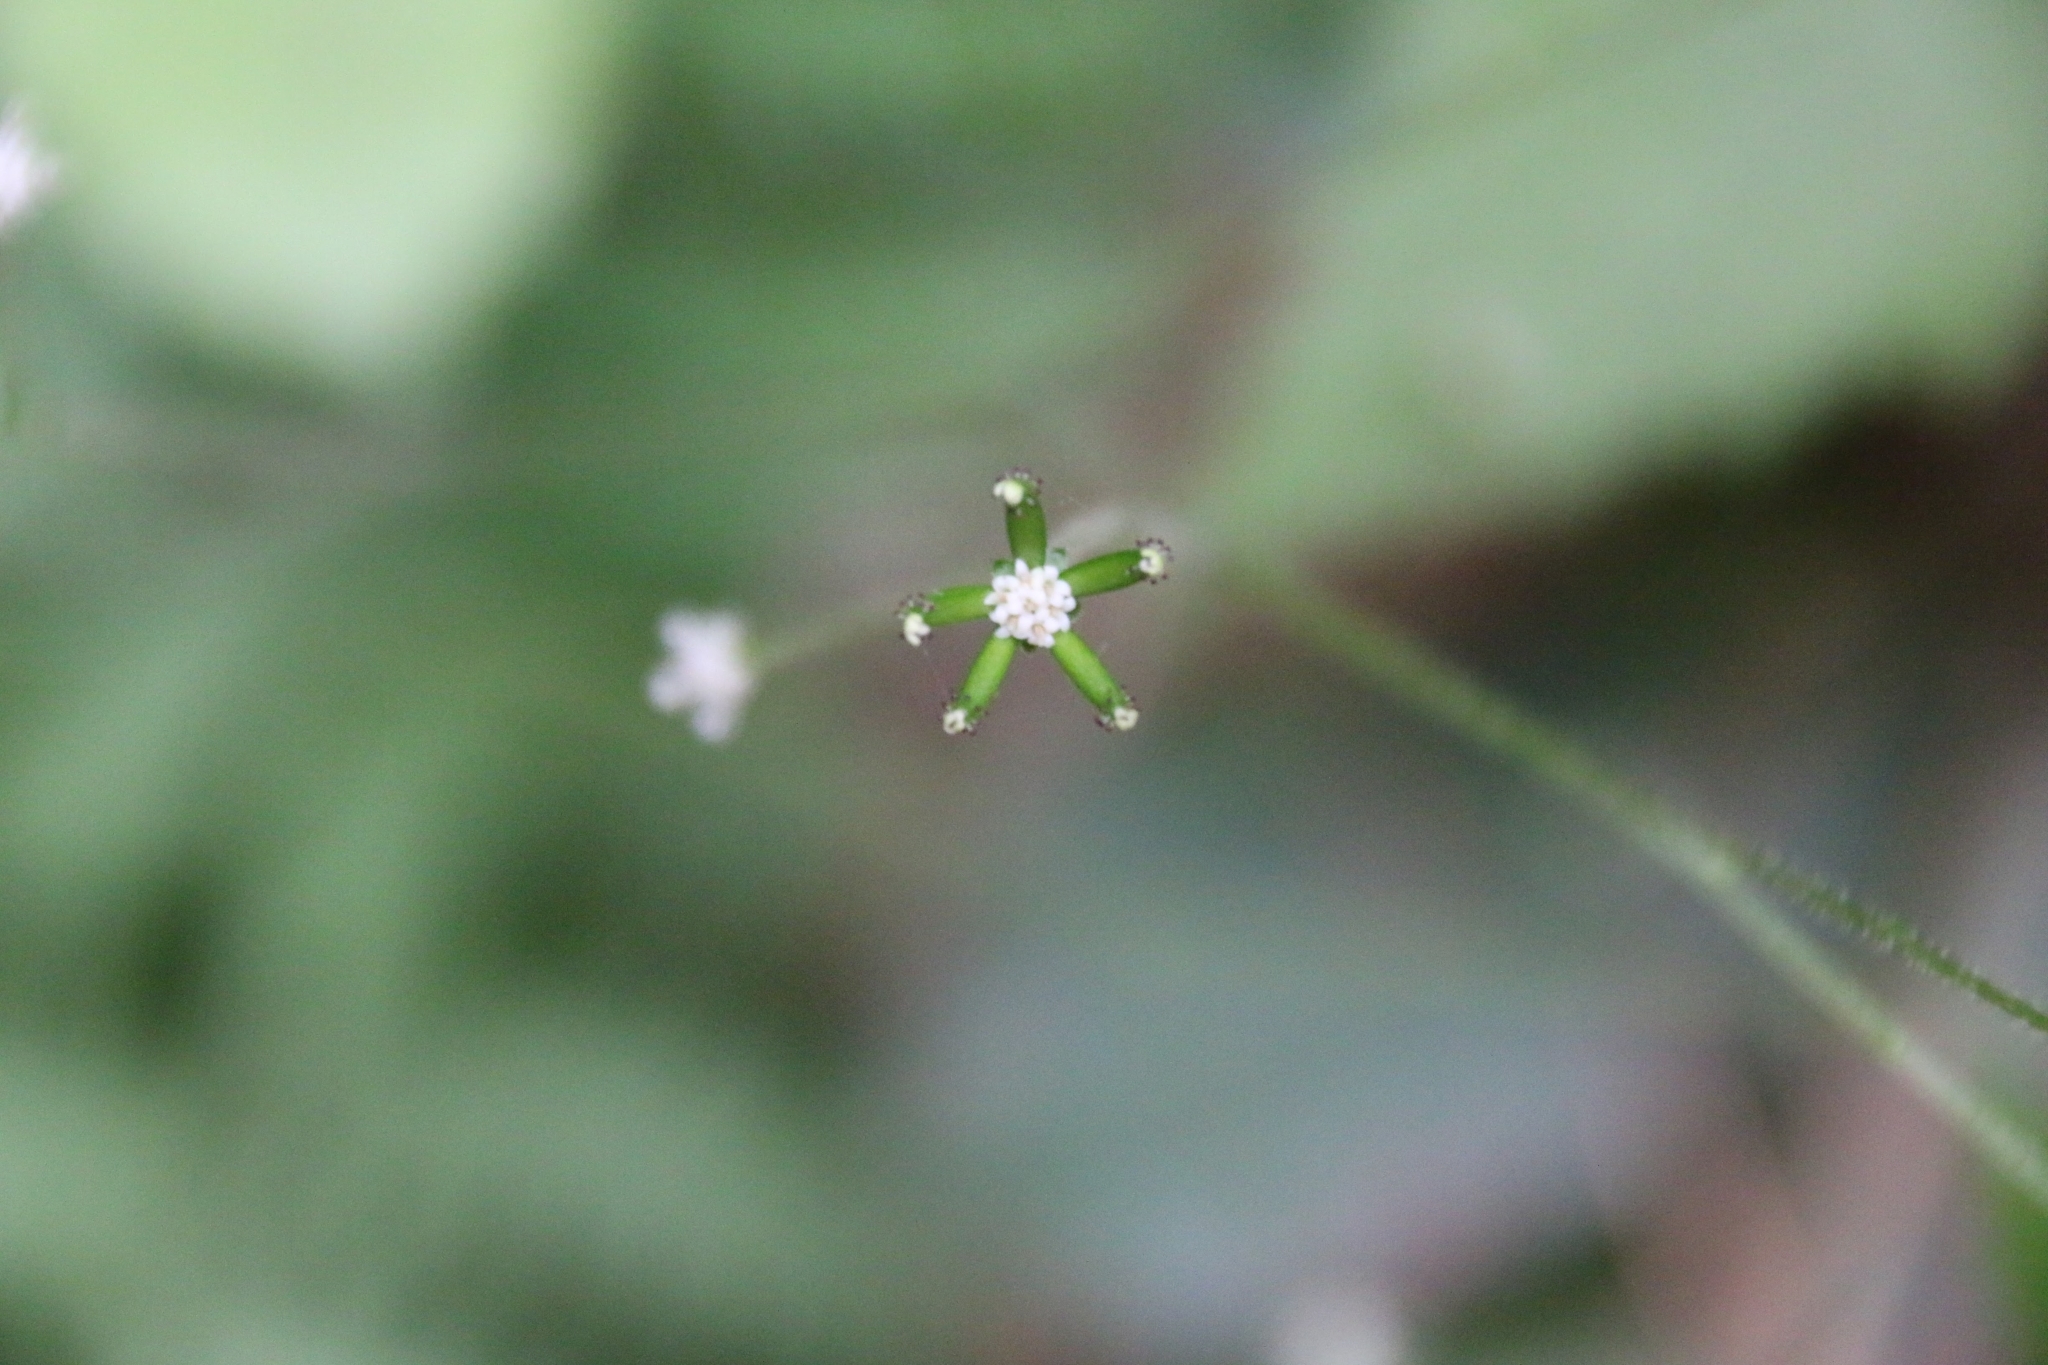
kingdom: Plantae
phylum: Tracheophyta
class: Magnoliopsida
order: Asterales
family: Asteraceae
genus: Adenocaulon
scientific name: Adenocaulon bicolor
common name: Trailplant
